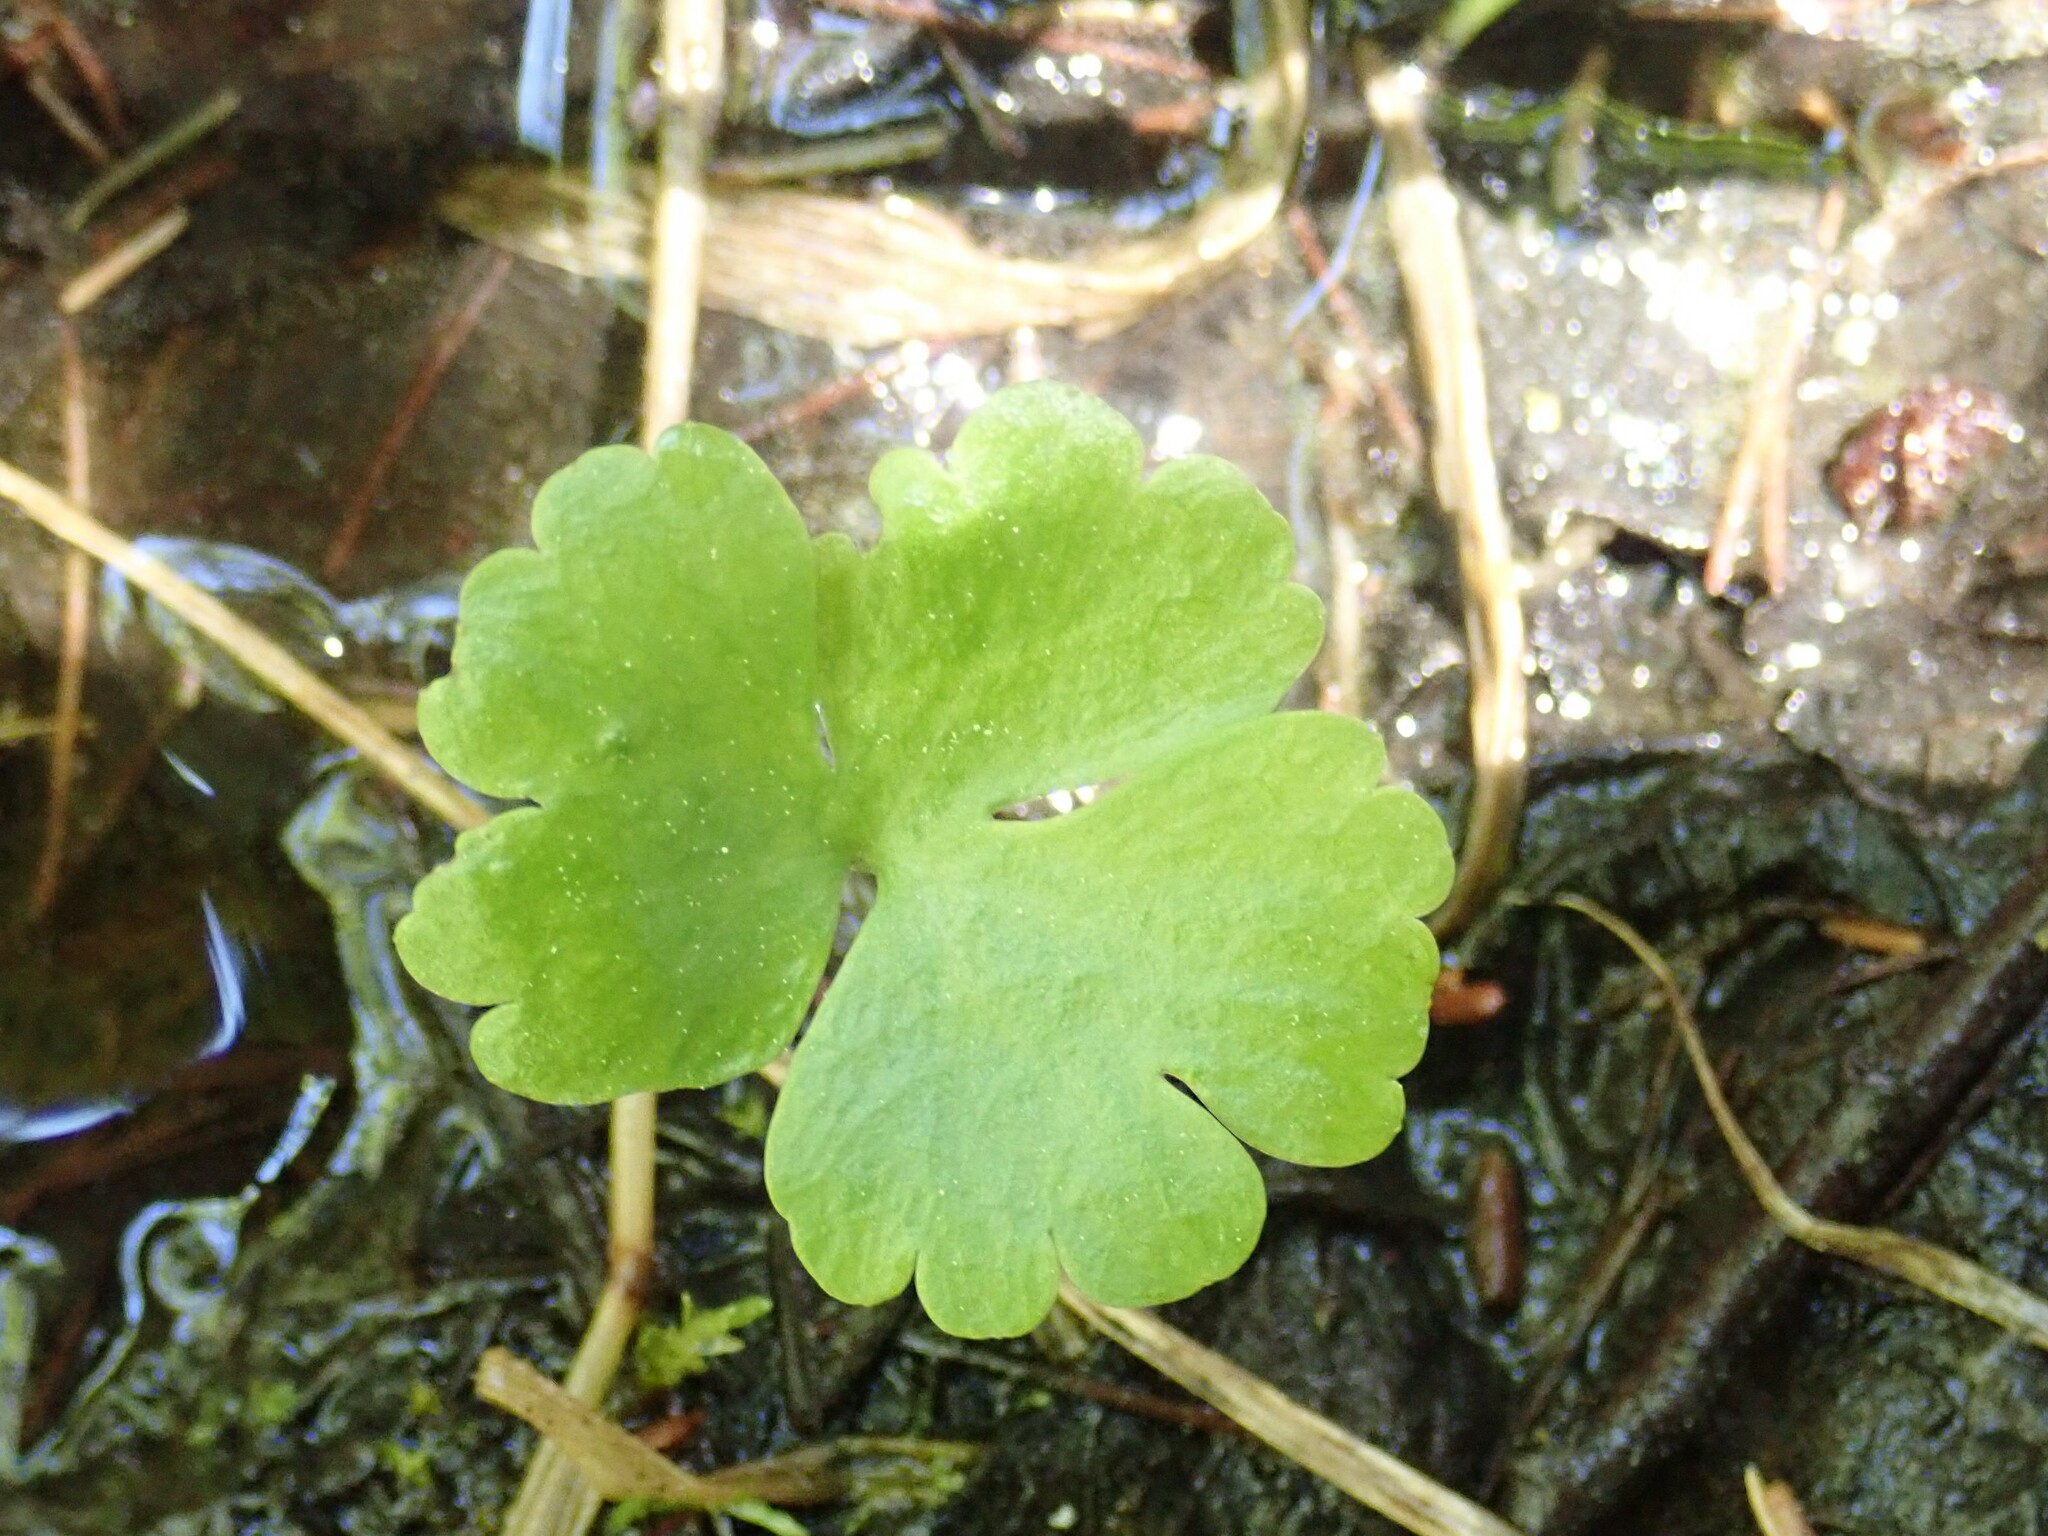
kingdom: Plantae
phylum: Tracheophyta
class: Magnoliopsida
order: Ranunculales
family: Ranunculaceae
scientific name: Ranunculaceae
